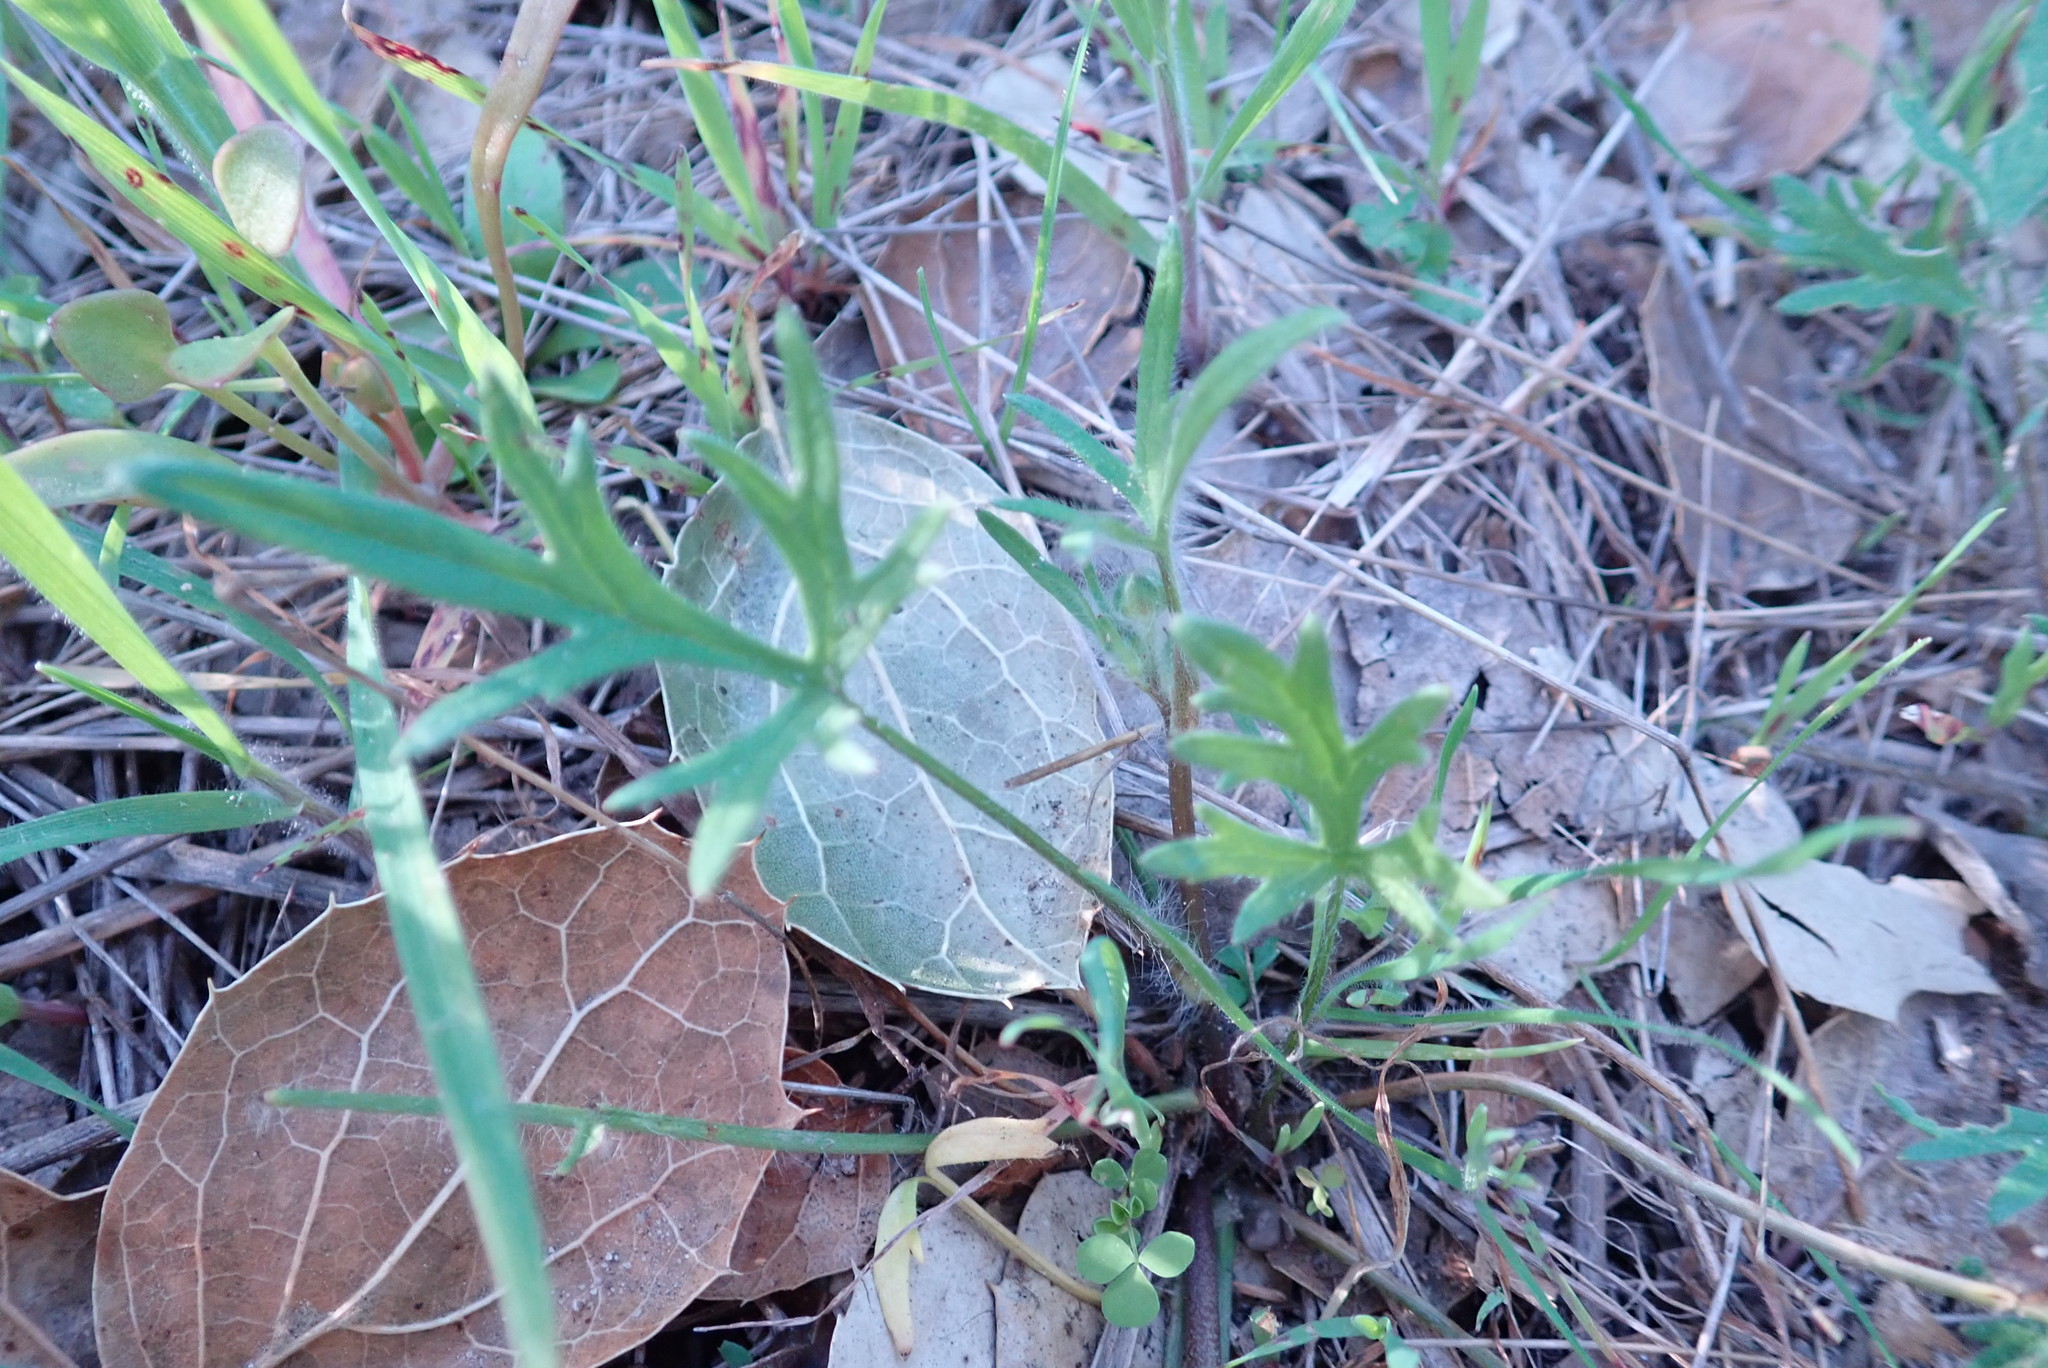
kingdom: Plantae
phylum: Tracheophyta
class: Magnoliopsida
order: Ranunculales
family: Ranunculaceae
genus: Ranunculus
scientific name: Ranunculus californicus
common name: California buttercup
